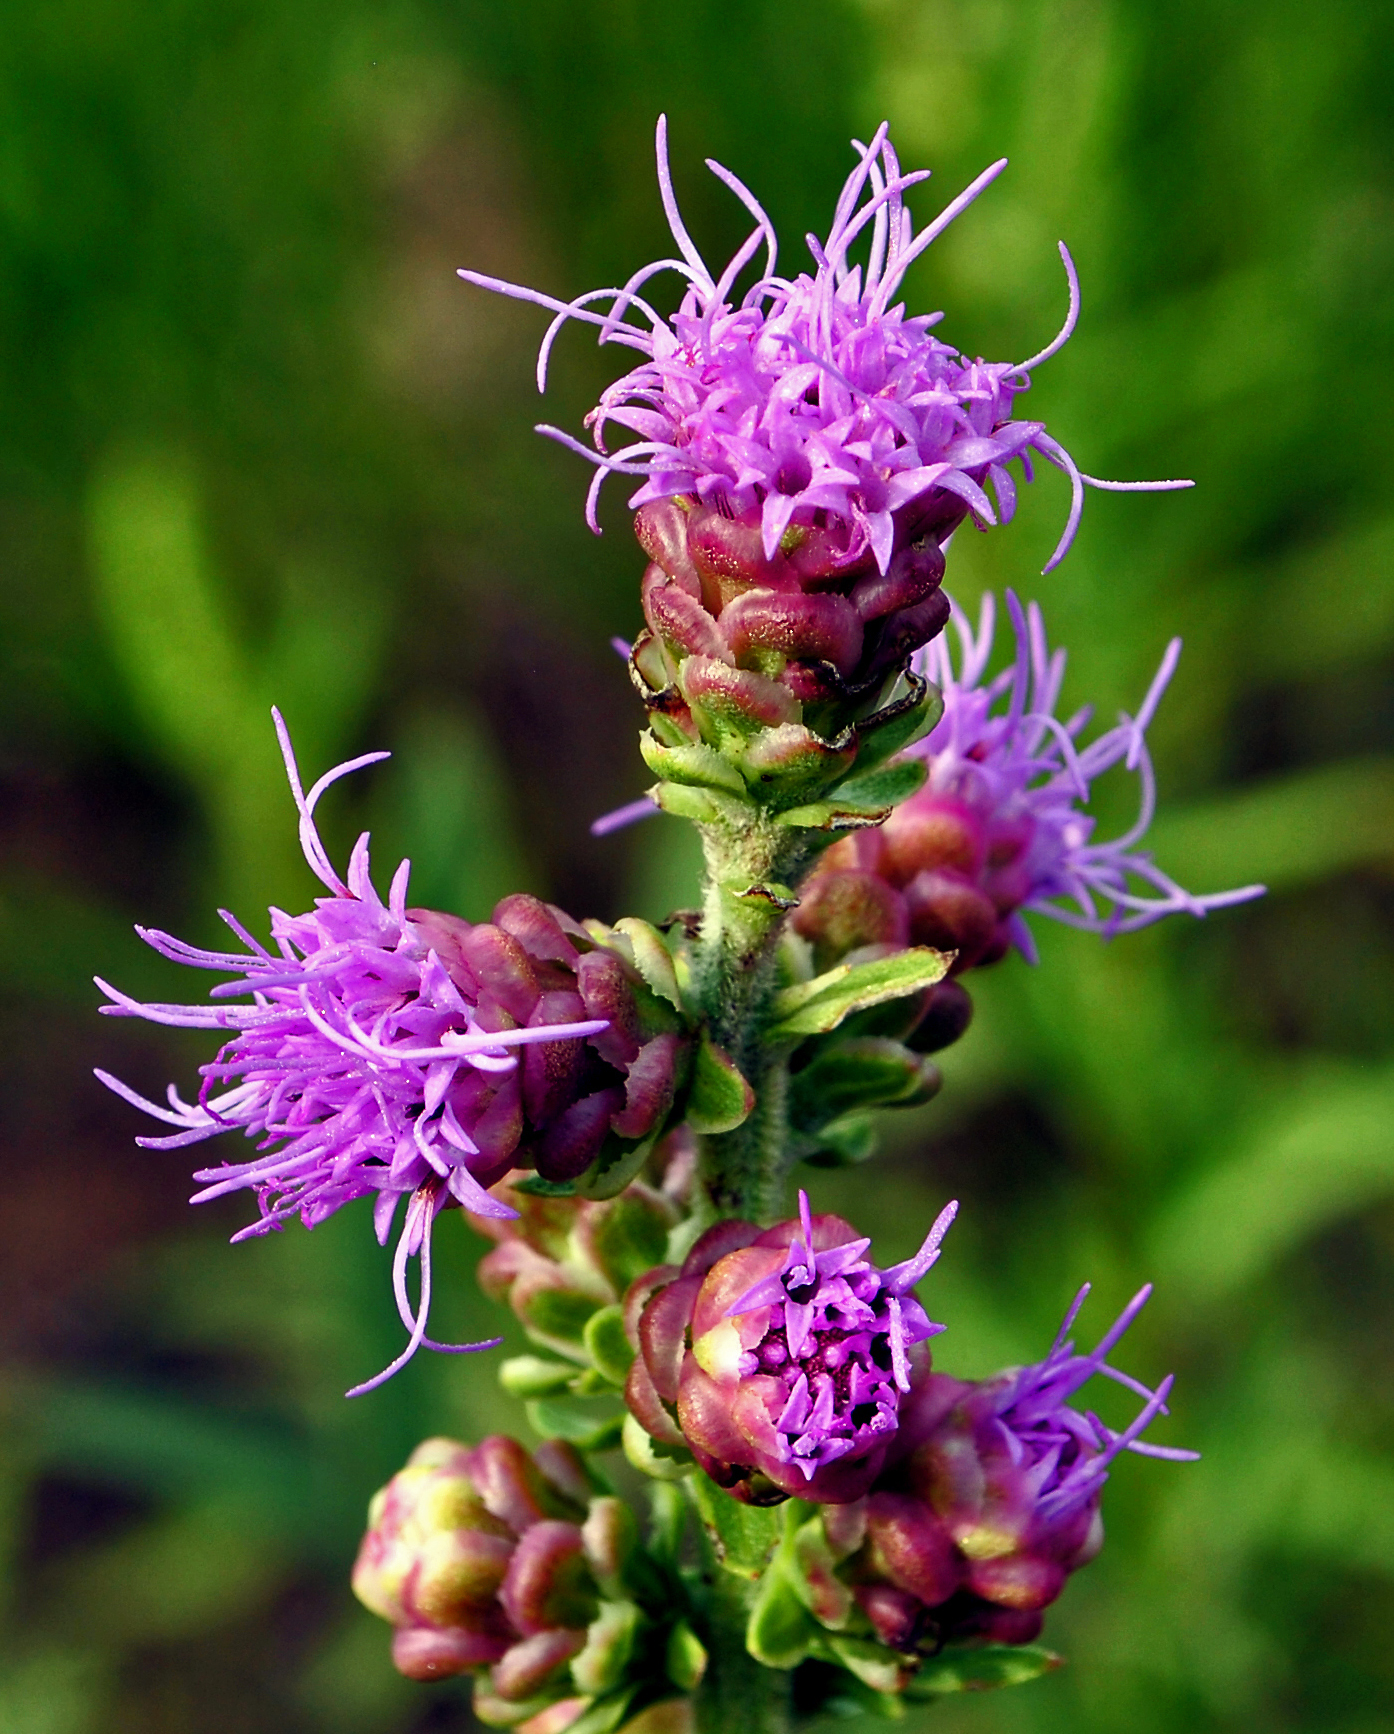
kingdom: Plantae
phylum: Tracheophyta
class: Magnoliopsida
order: Asterales
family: Asteraceae
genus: Liatris
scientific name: Liatris aspera
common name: Lacerate blazing-star
